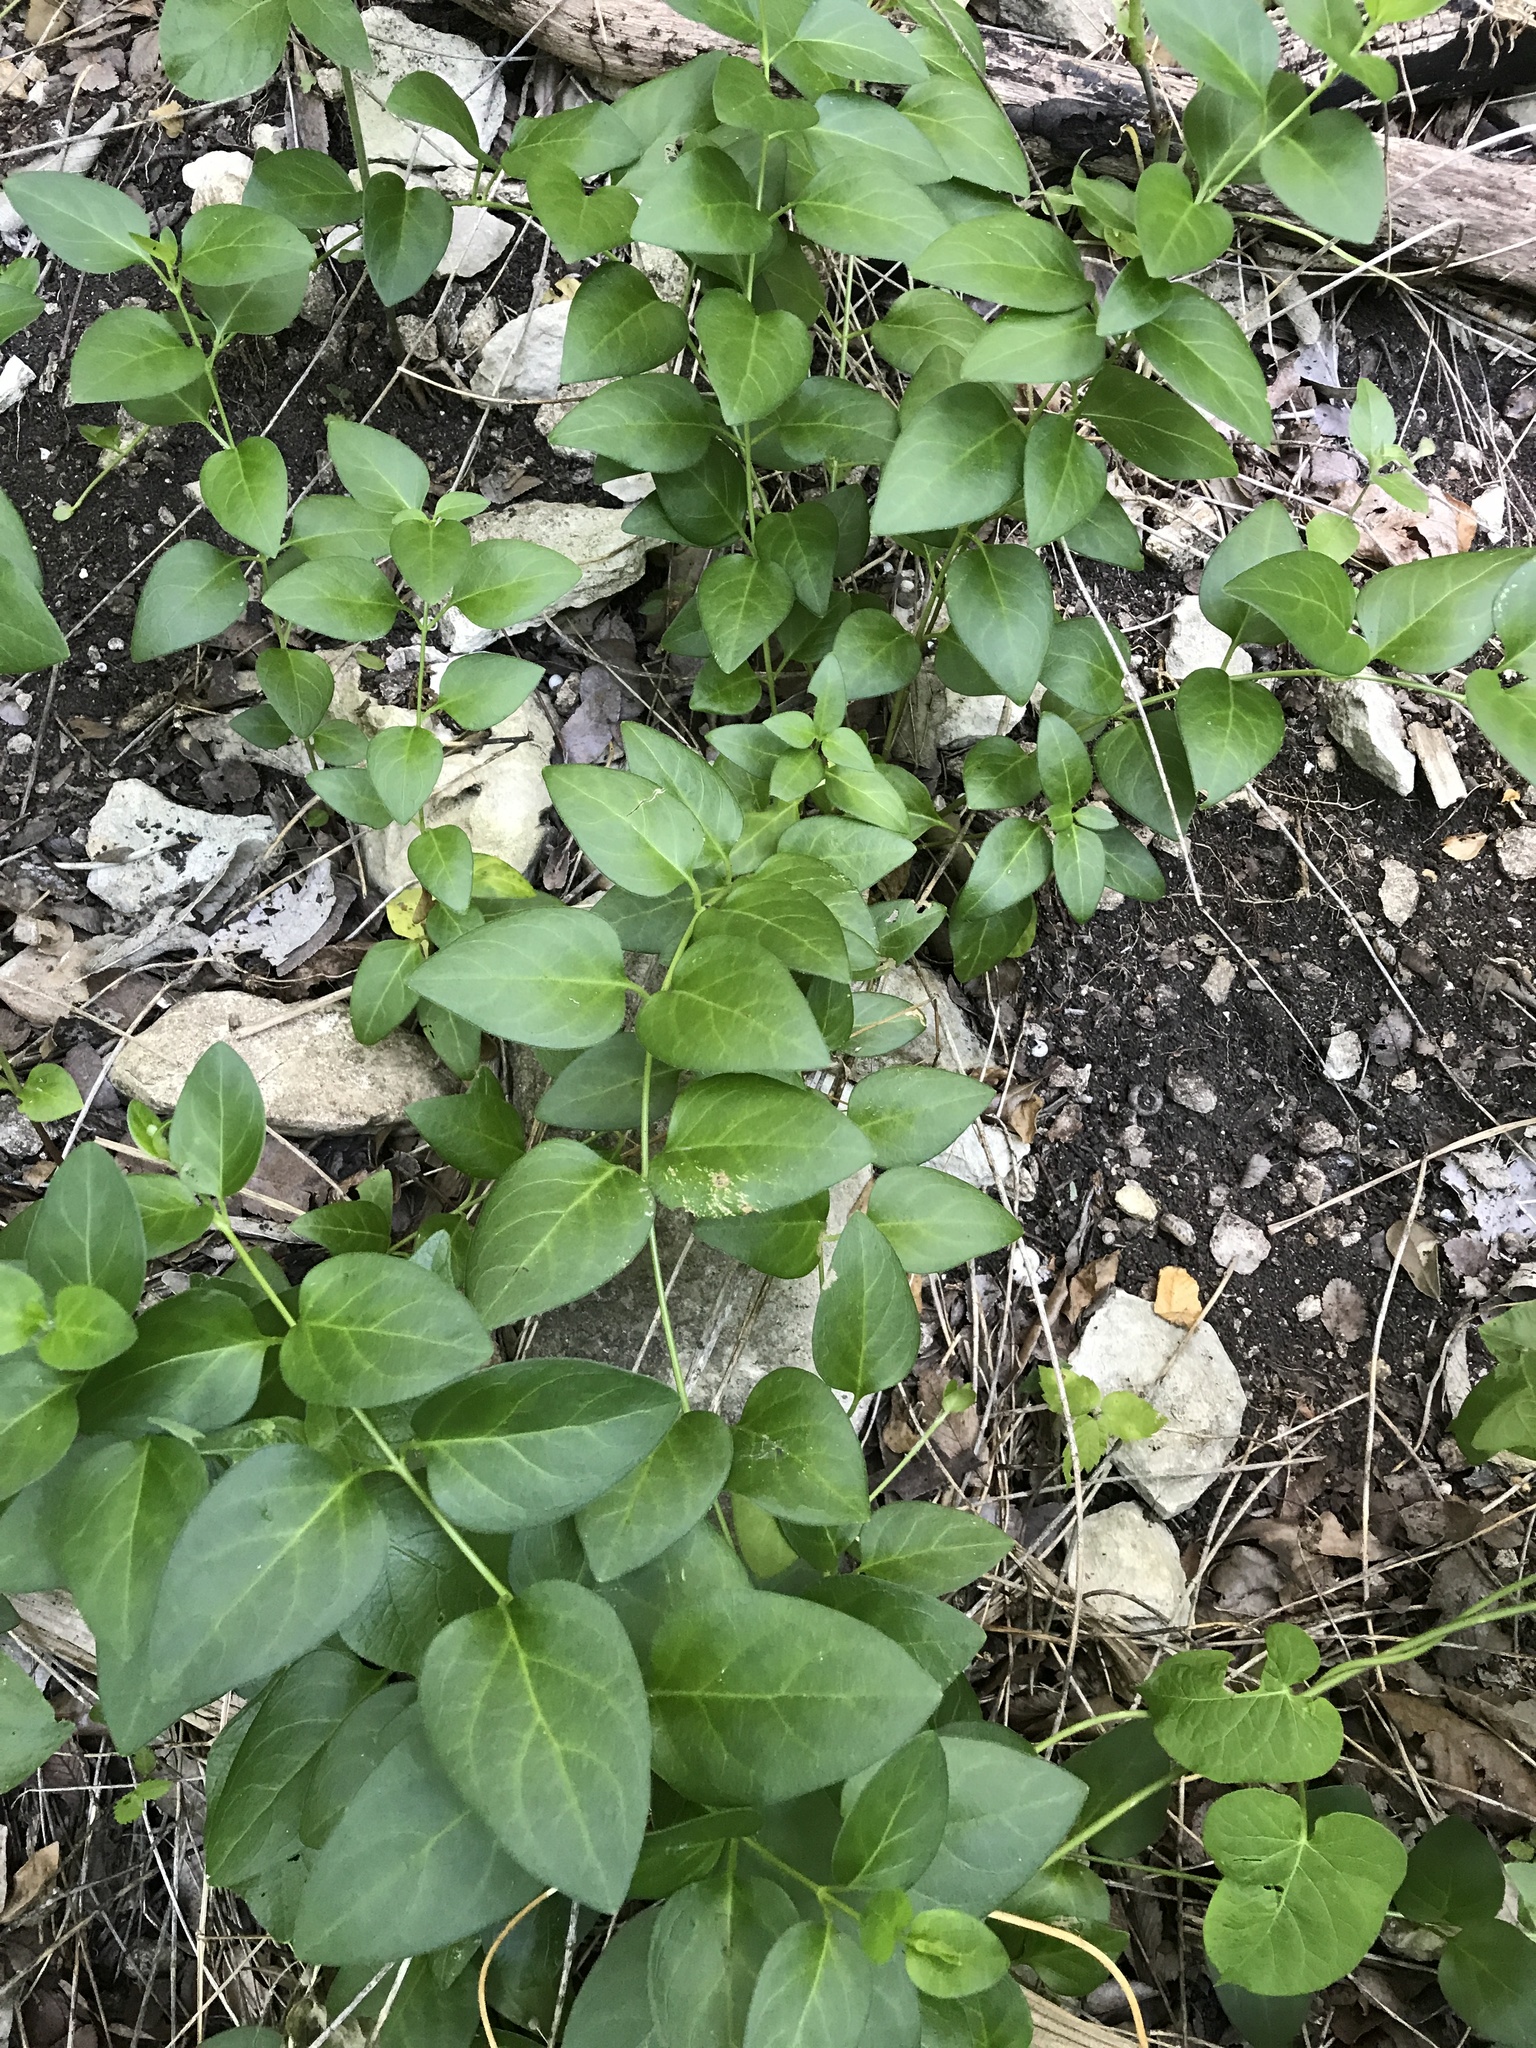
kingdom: Plantae
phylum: Tracheophyta
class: Magnoliopsida
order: Gentianales
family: Apocynaceae
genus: Vinca
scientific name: Vinca major
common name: Greater periwinkle
